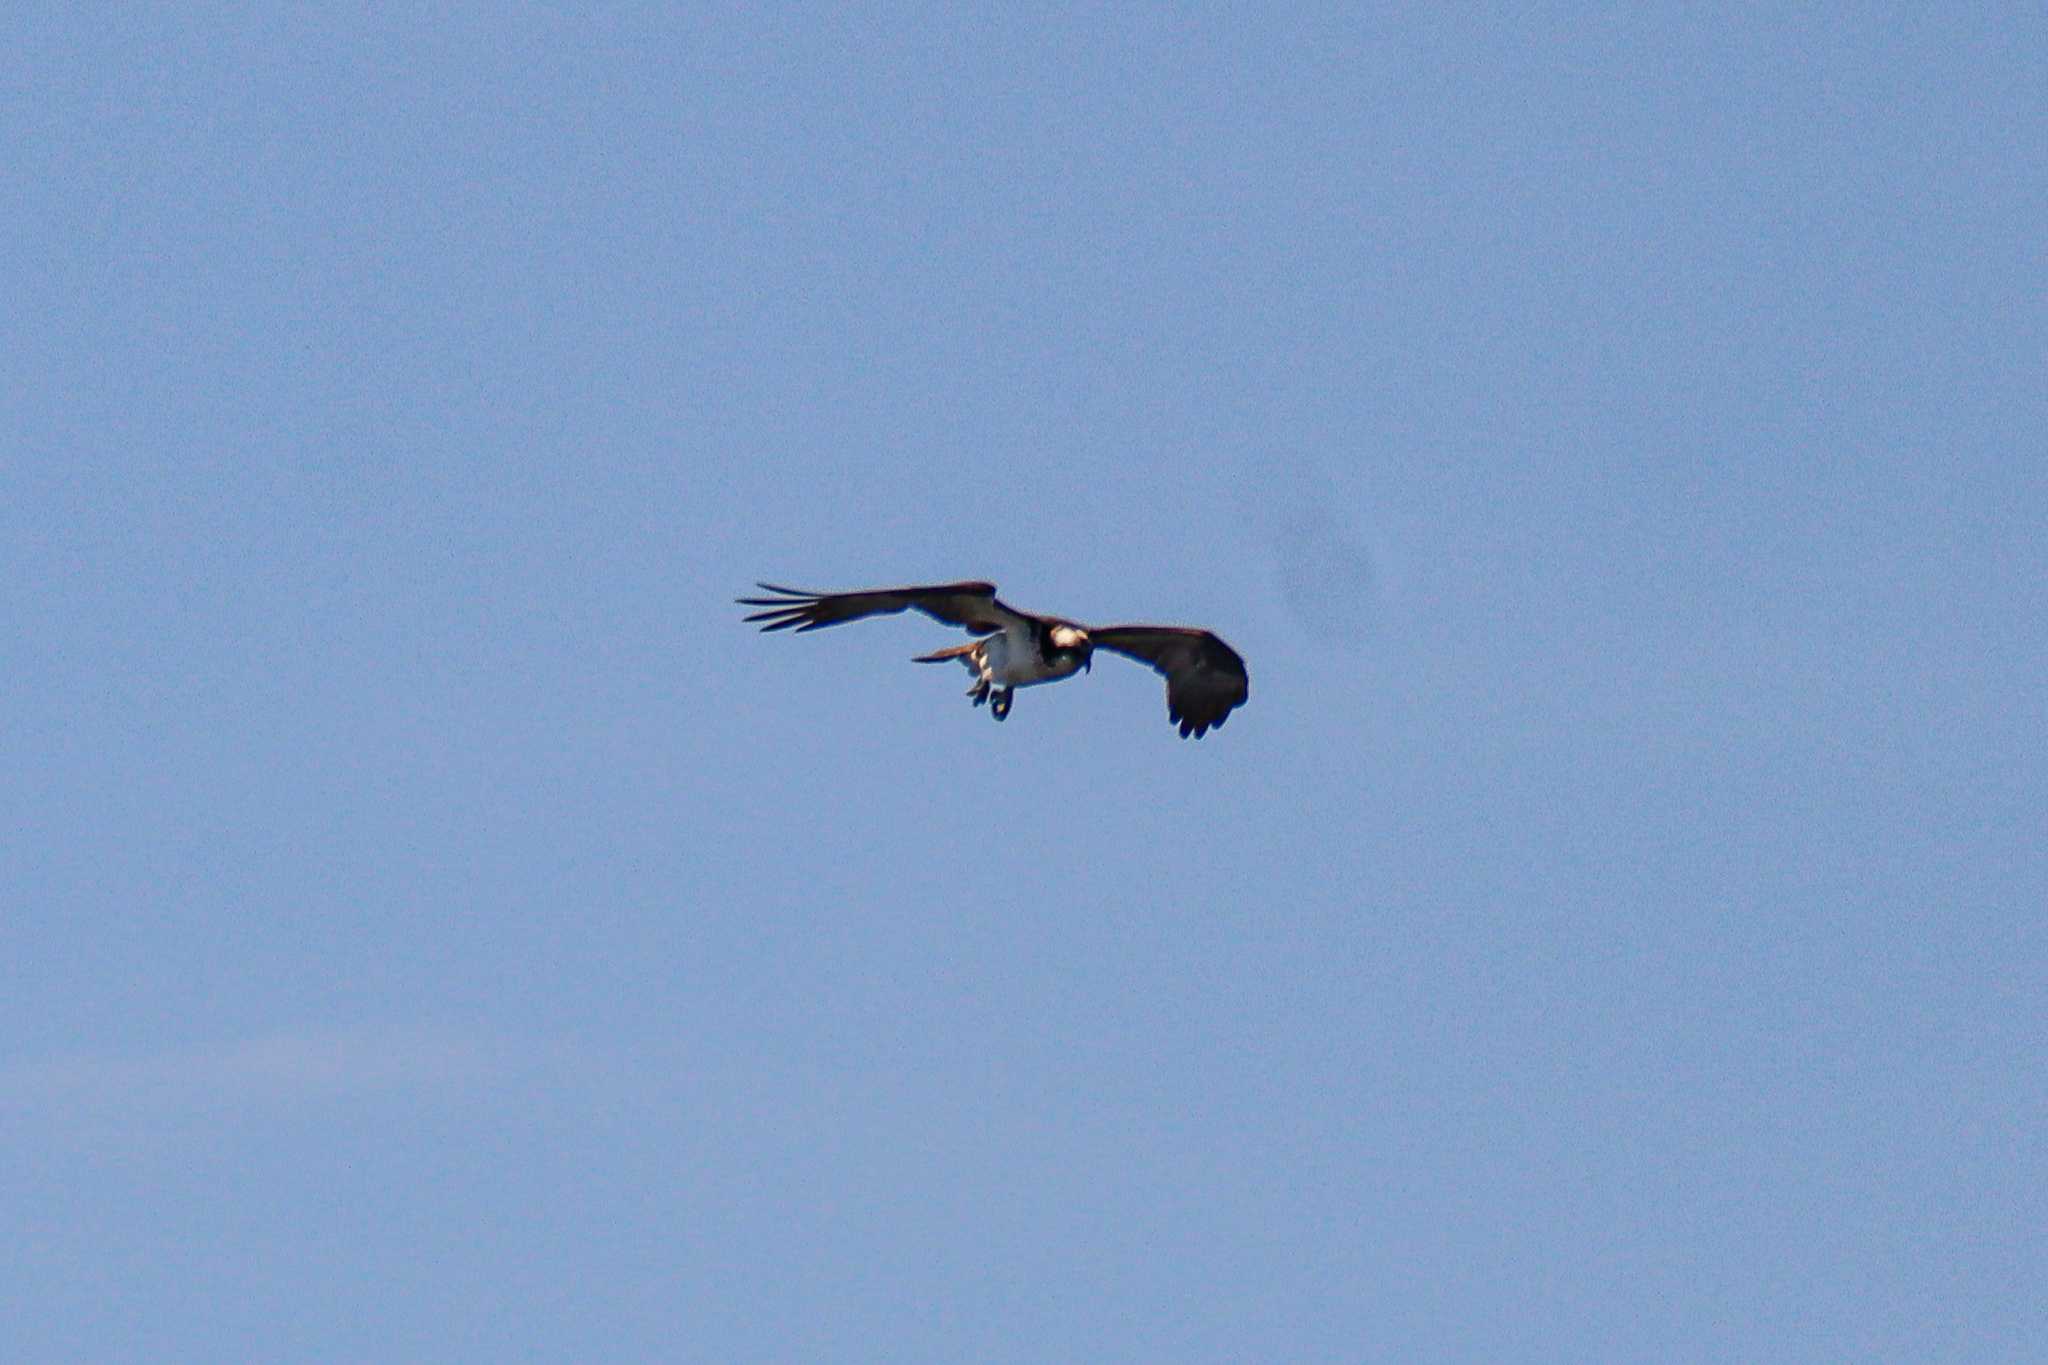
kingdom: Animalia
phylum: Chordata
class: Aves
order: Accipitriformes
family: Pandionidae
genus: Pandion
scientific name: Pandion haliaetus
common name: Osprey
